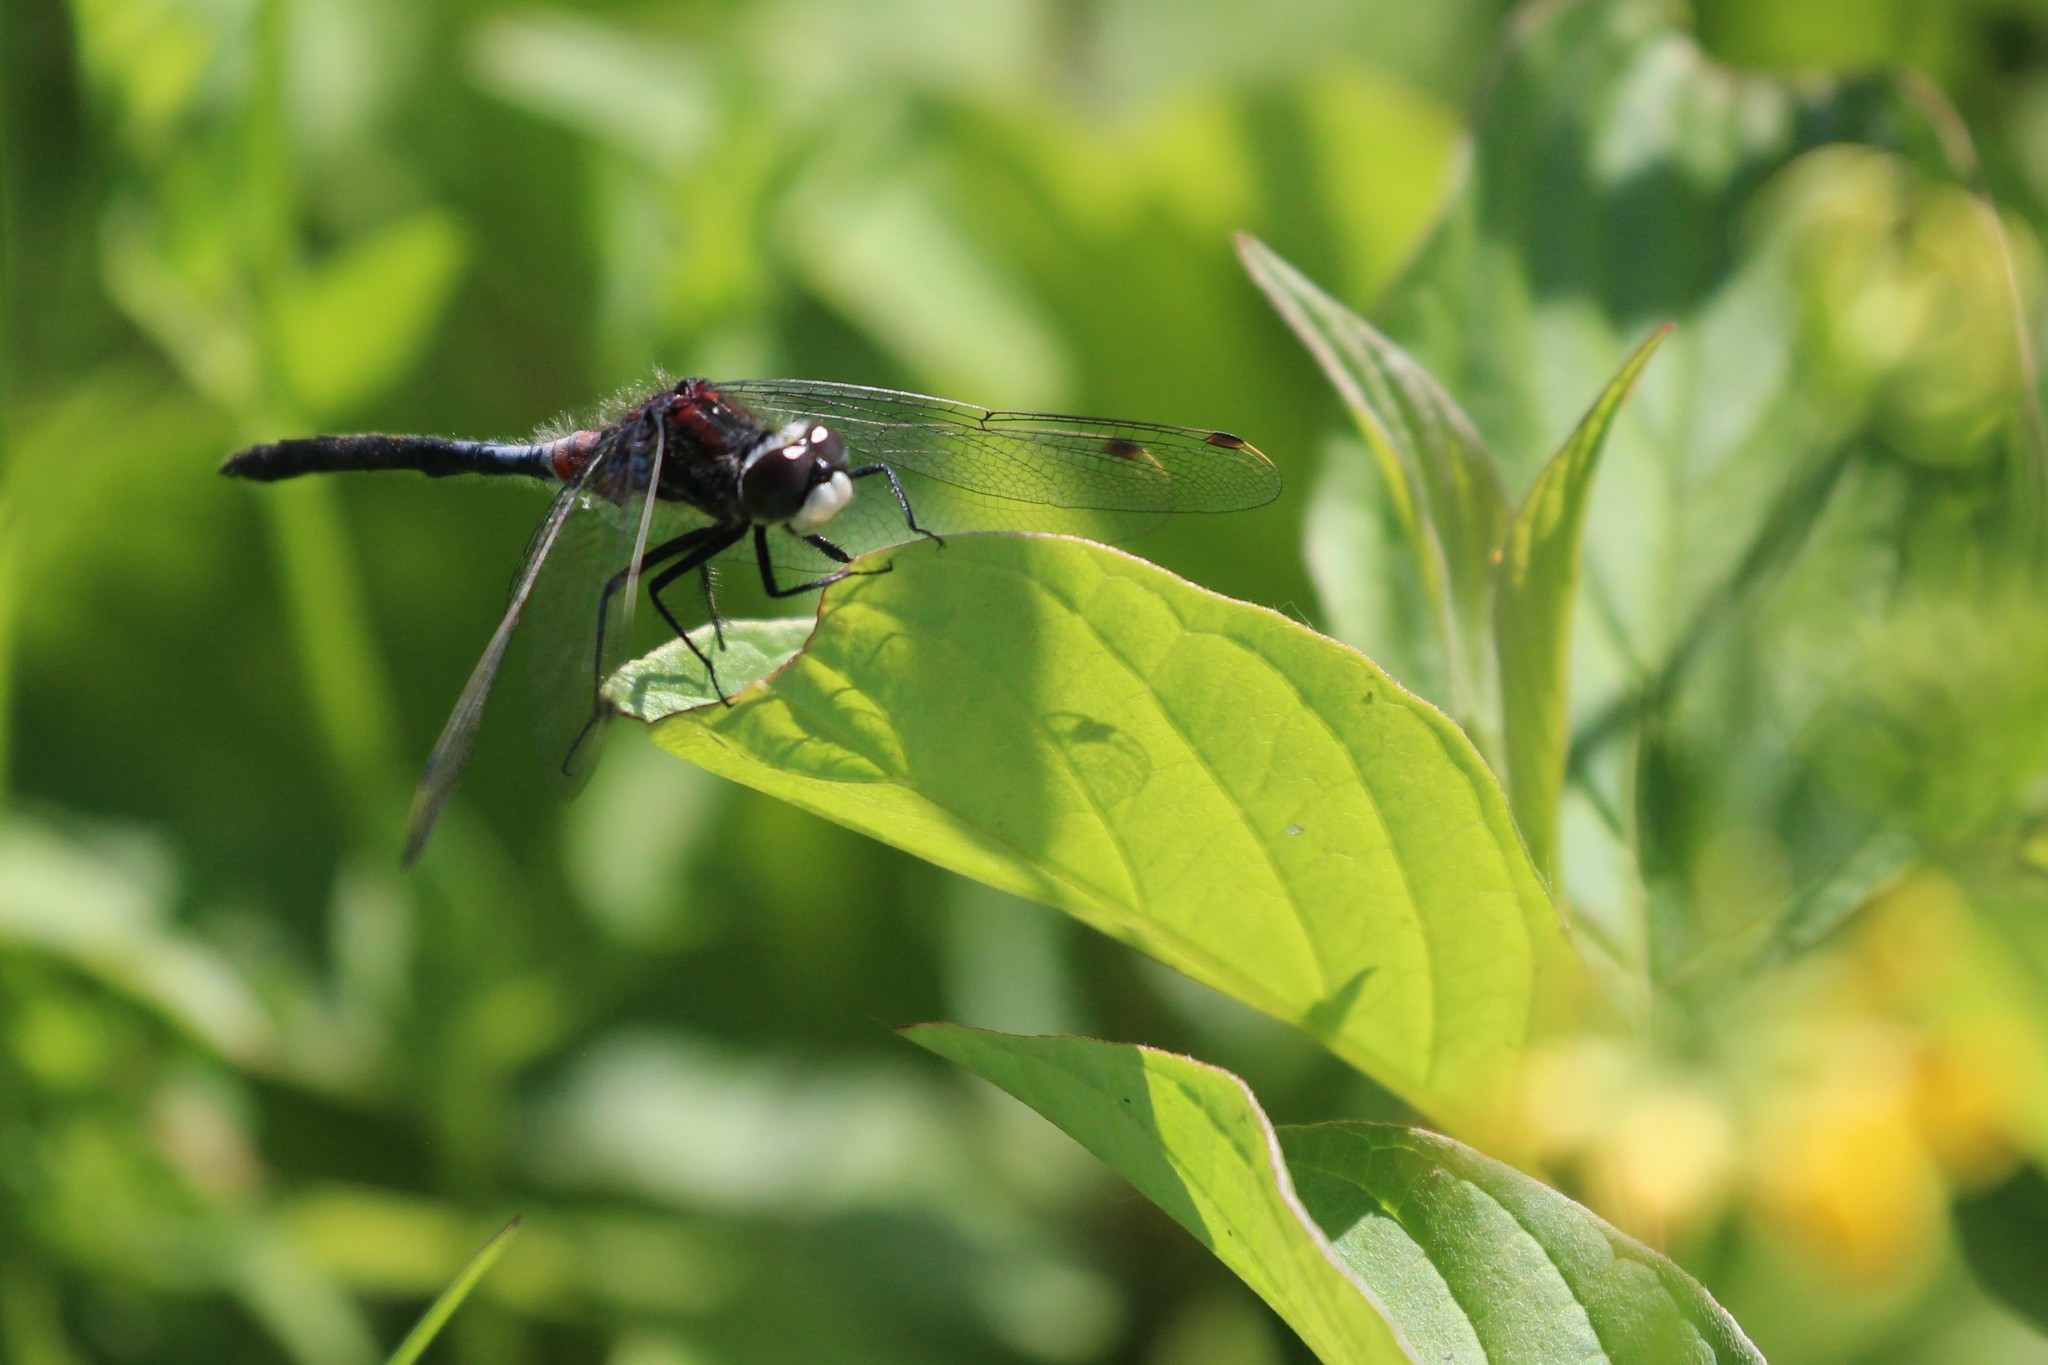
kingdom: Animalia
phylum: Arthropoda
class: Insecta
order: Odonata
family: Libellulidae
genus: Leucorrhinia
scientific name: Leucorrhinia proxima
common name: Belted whiteface
